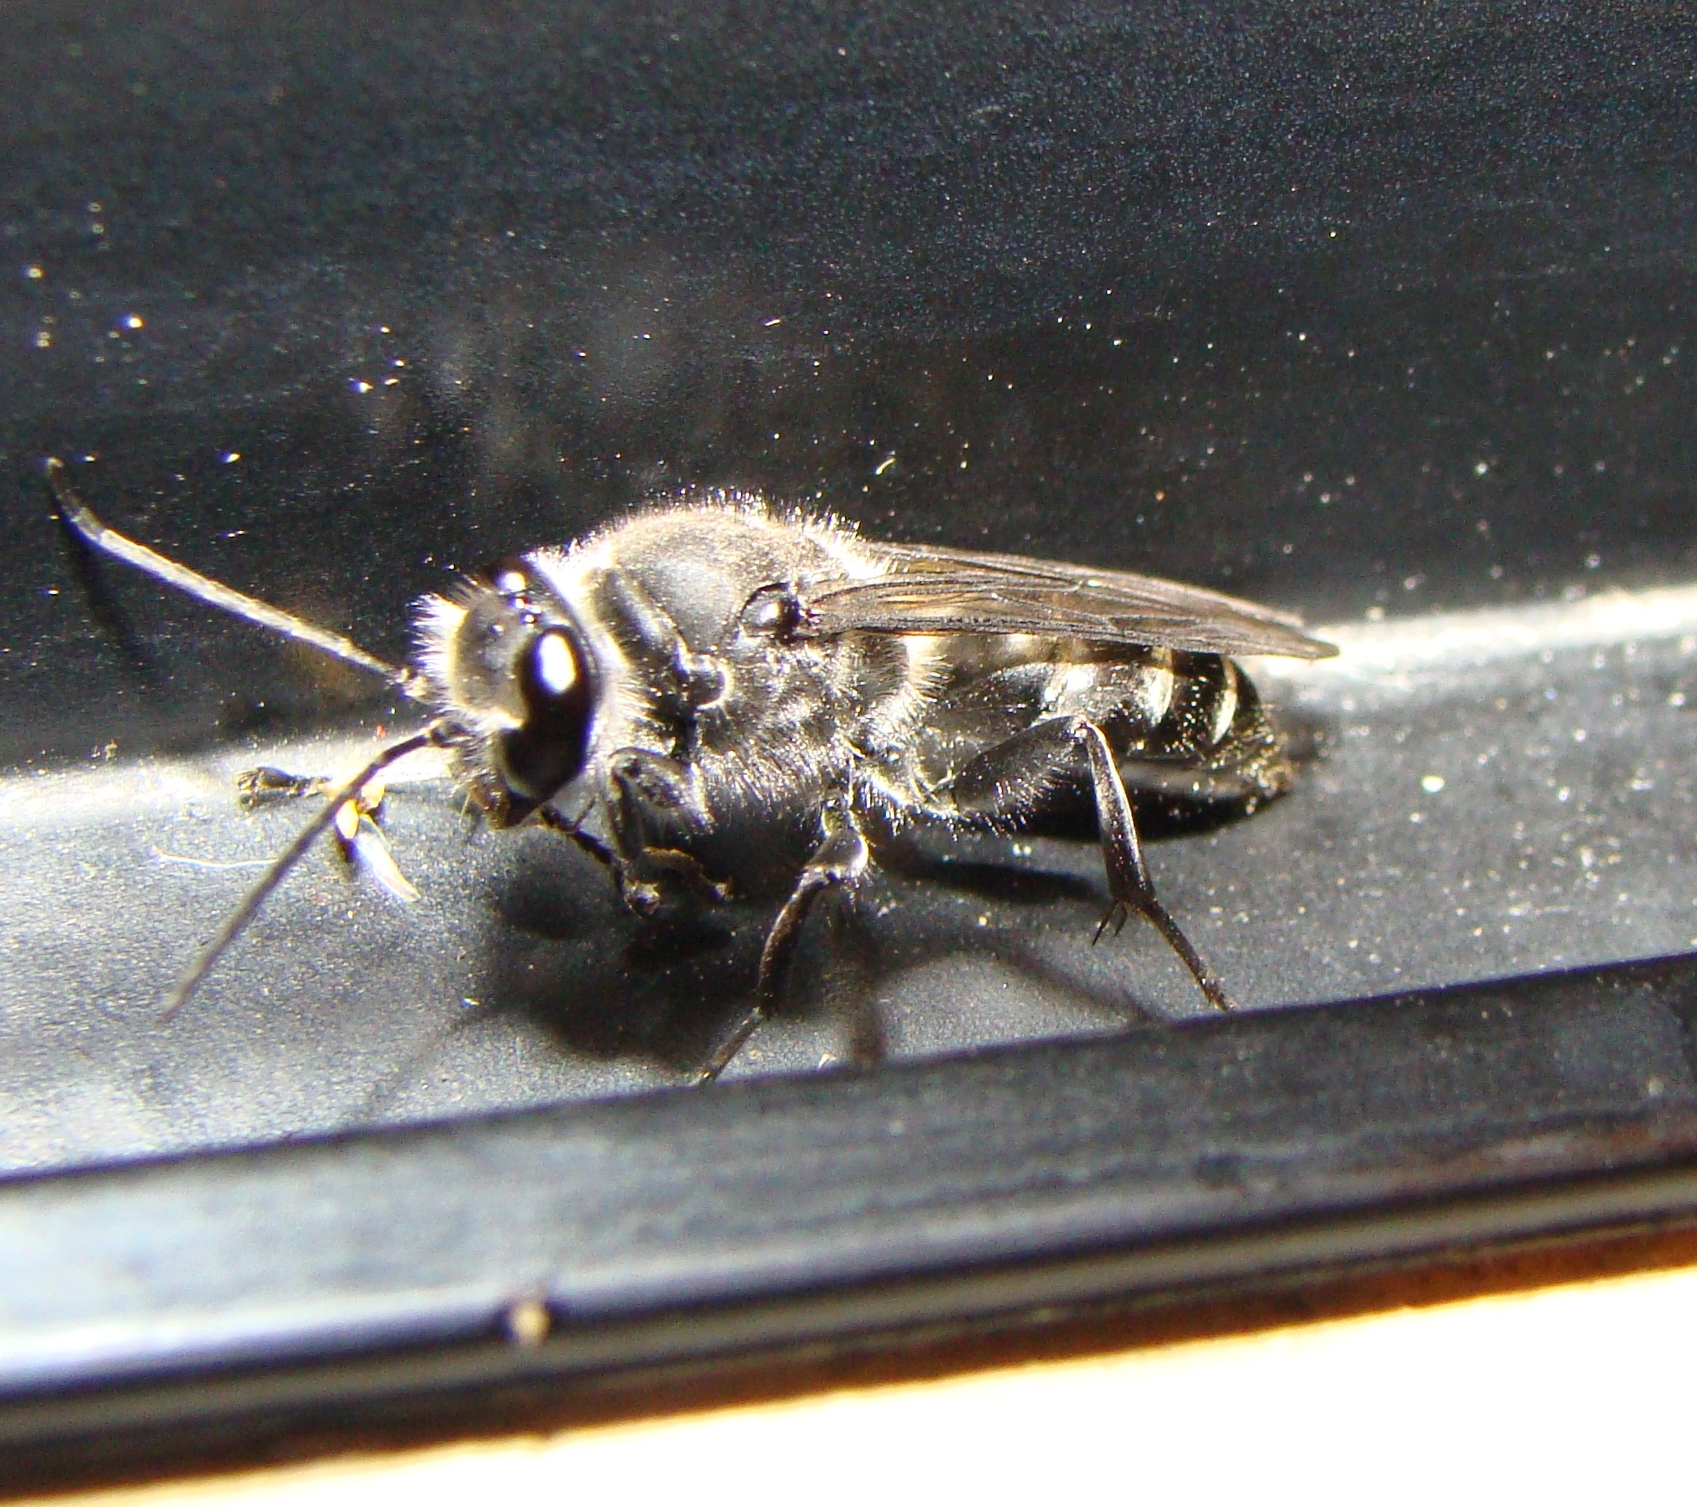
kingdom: Animalia
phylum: Arthropoda
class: Insecta
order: Hymenoptera
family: Crabronidae
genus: Pison
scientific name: Pison spinolae
